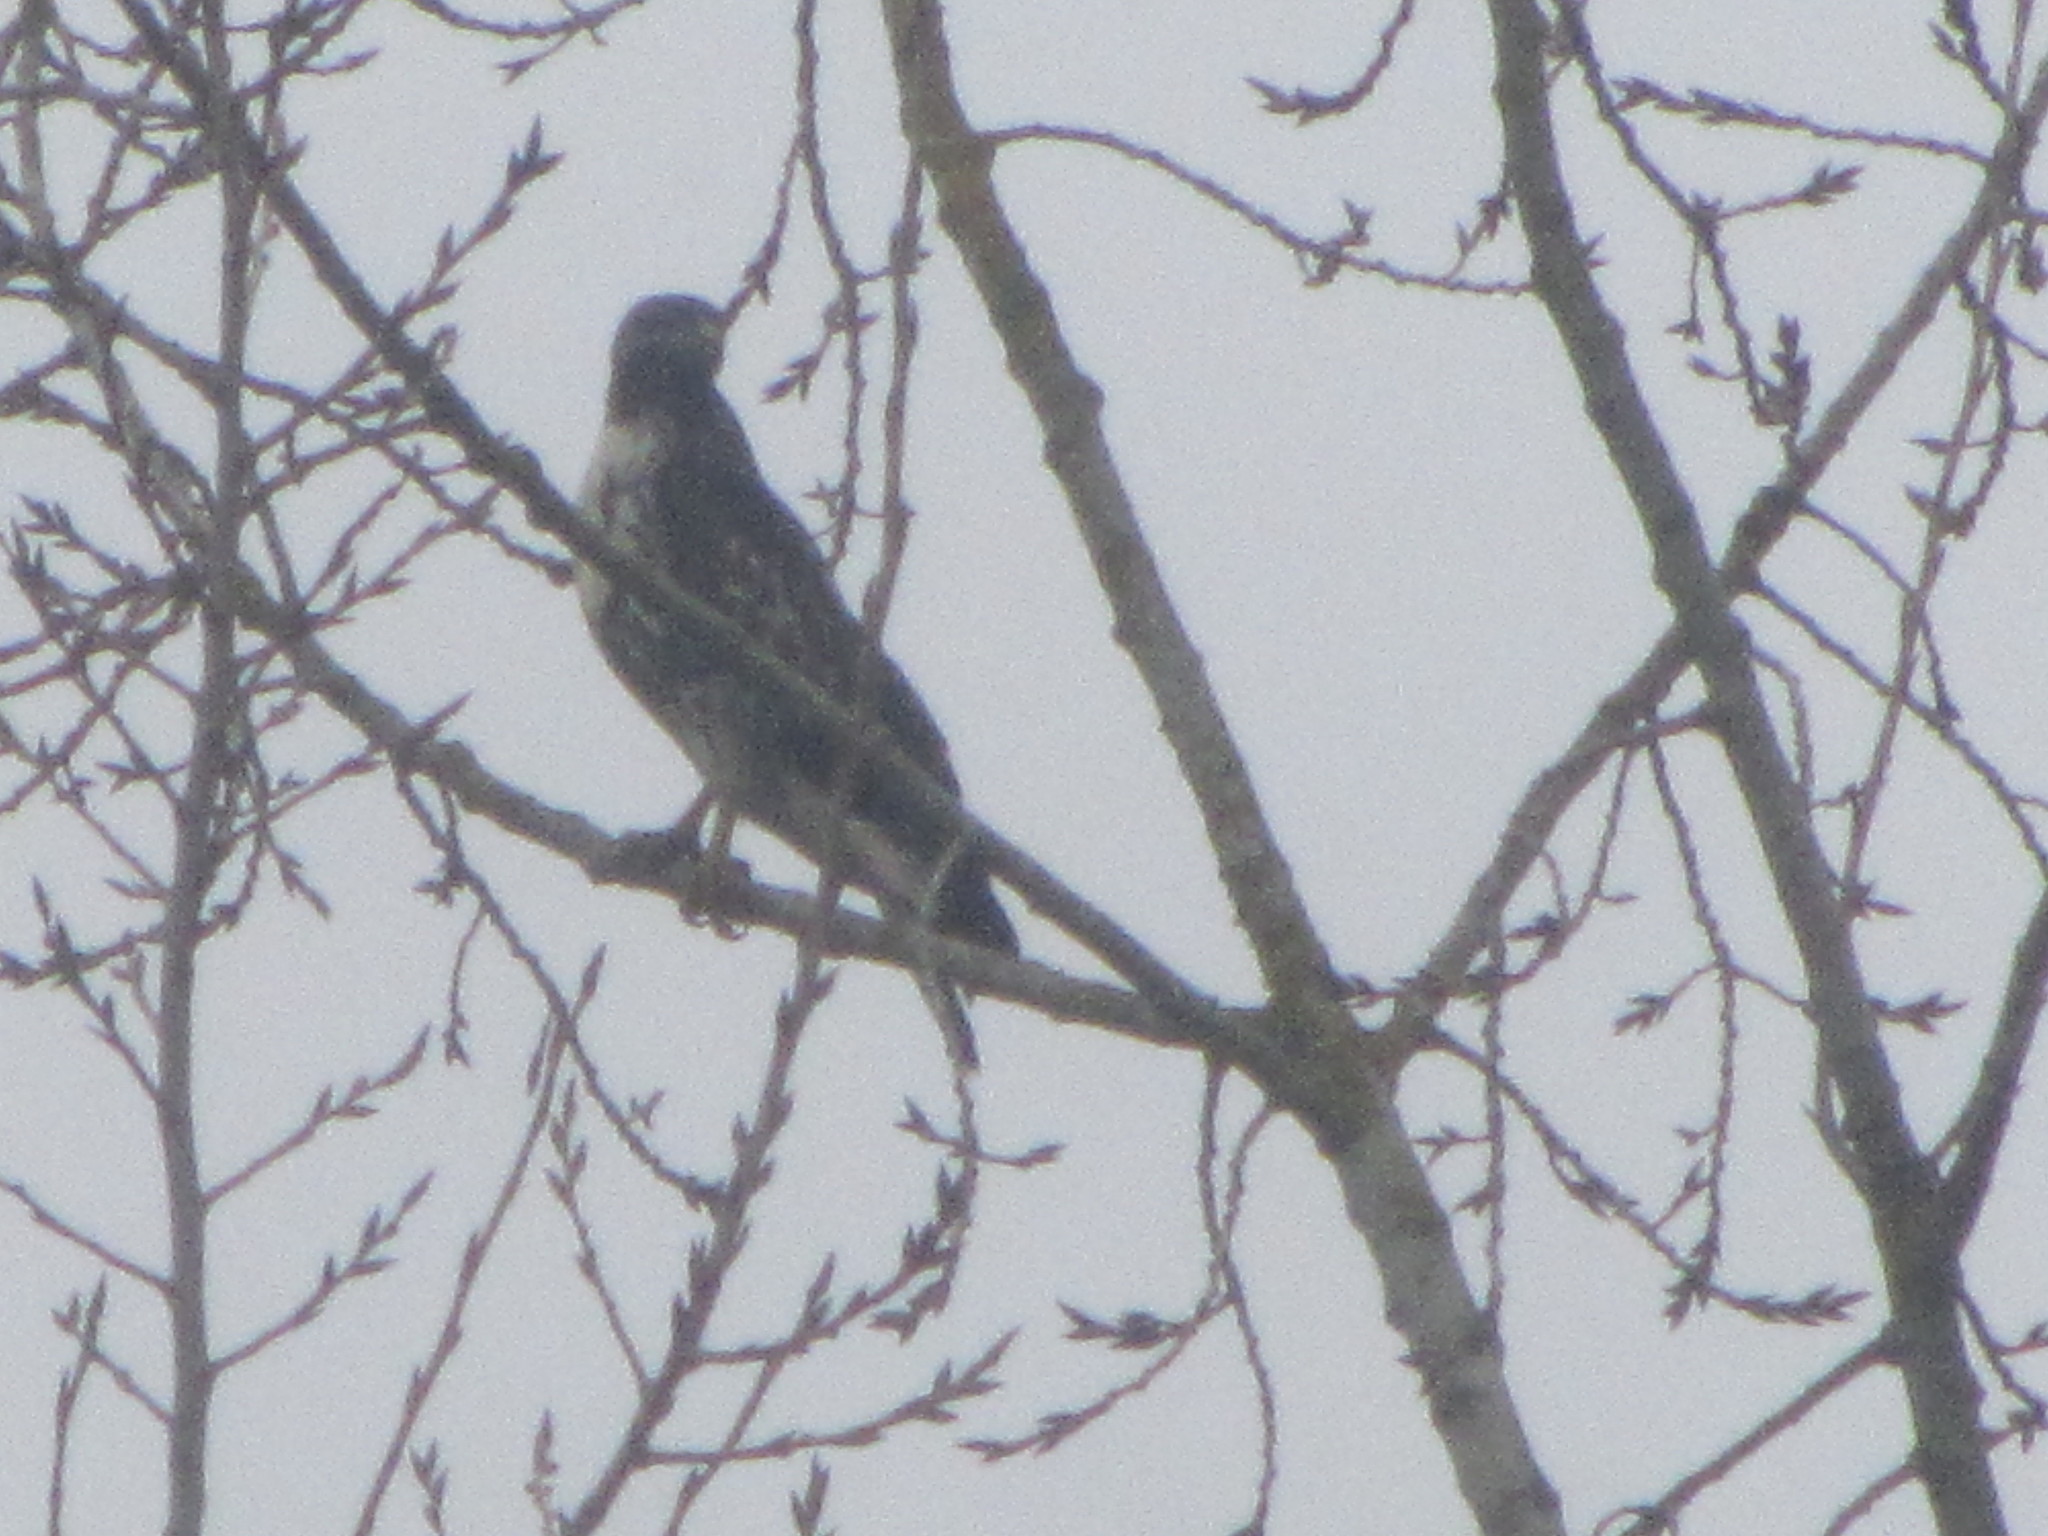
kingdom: Animalia
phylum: Chordata
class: Aves
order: Accipitriformes
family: Accipitridae
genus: Buteo
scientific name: Buteo jamaicensis
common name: Red-tailed hawk
